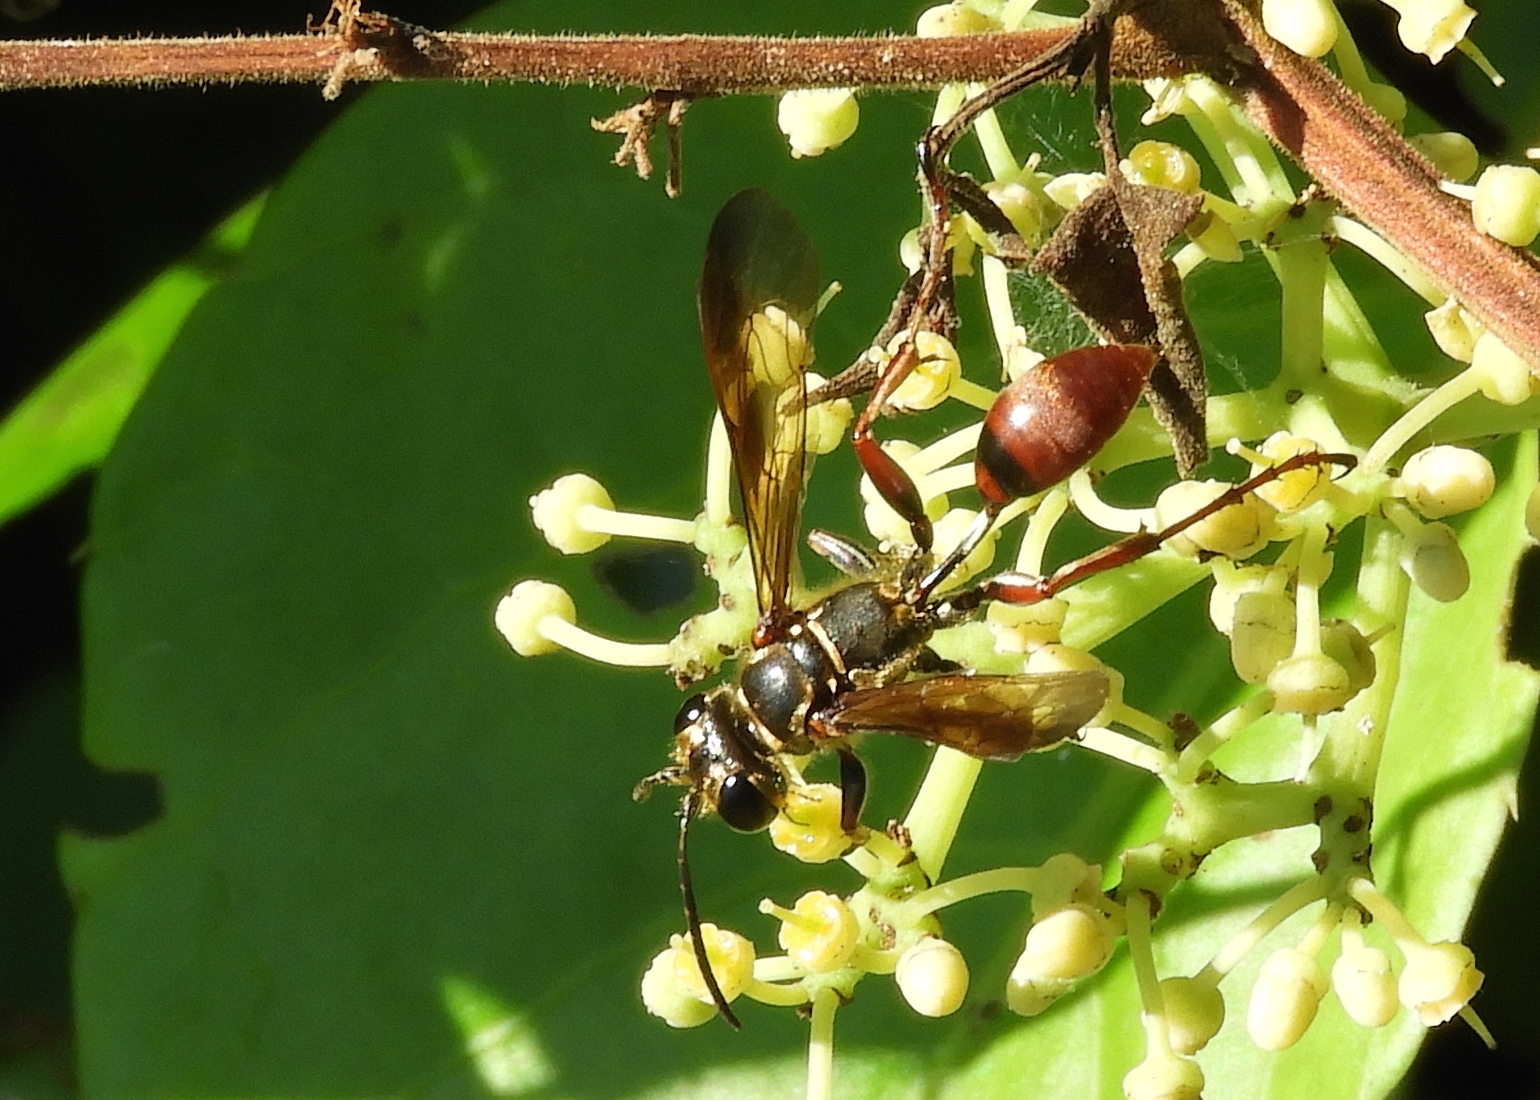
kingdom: Animalia
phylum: Arthropoda
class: Insecta
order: Hymenoptera
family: Sphecidae
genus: Isodontia
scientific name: Isodontia
